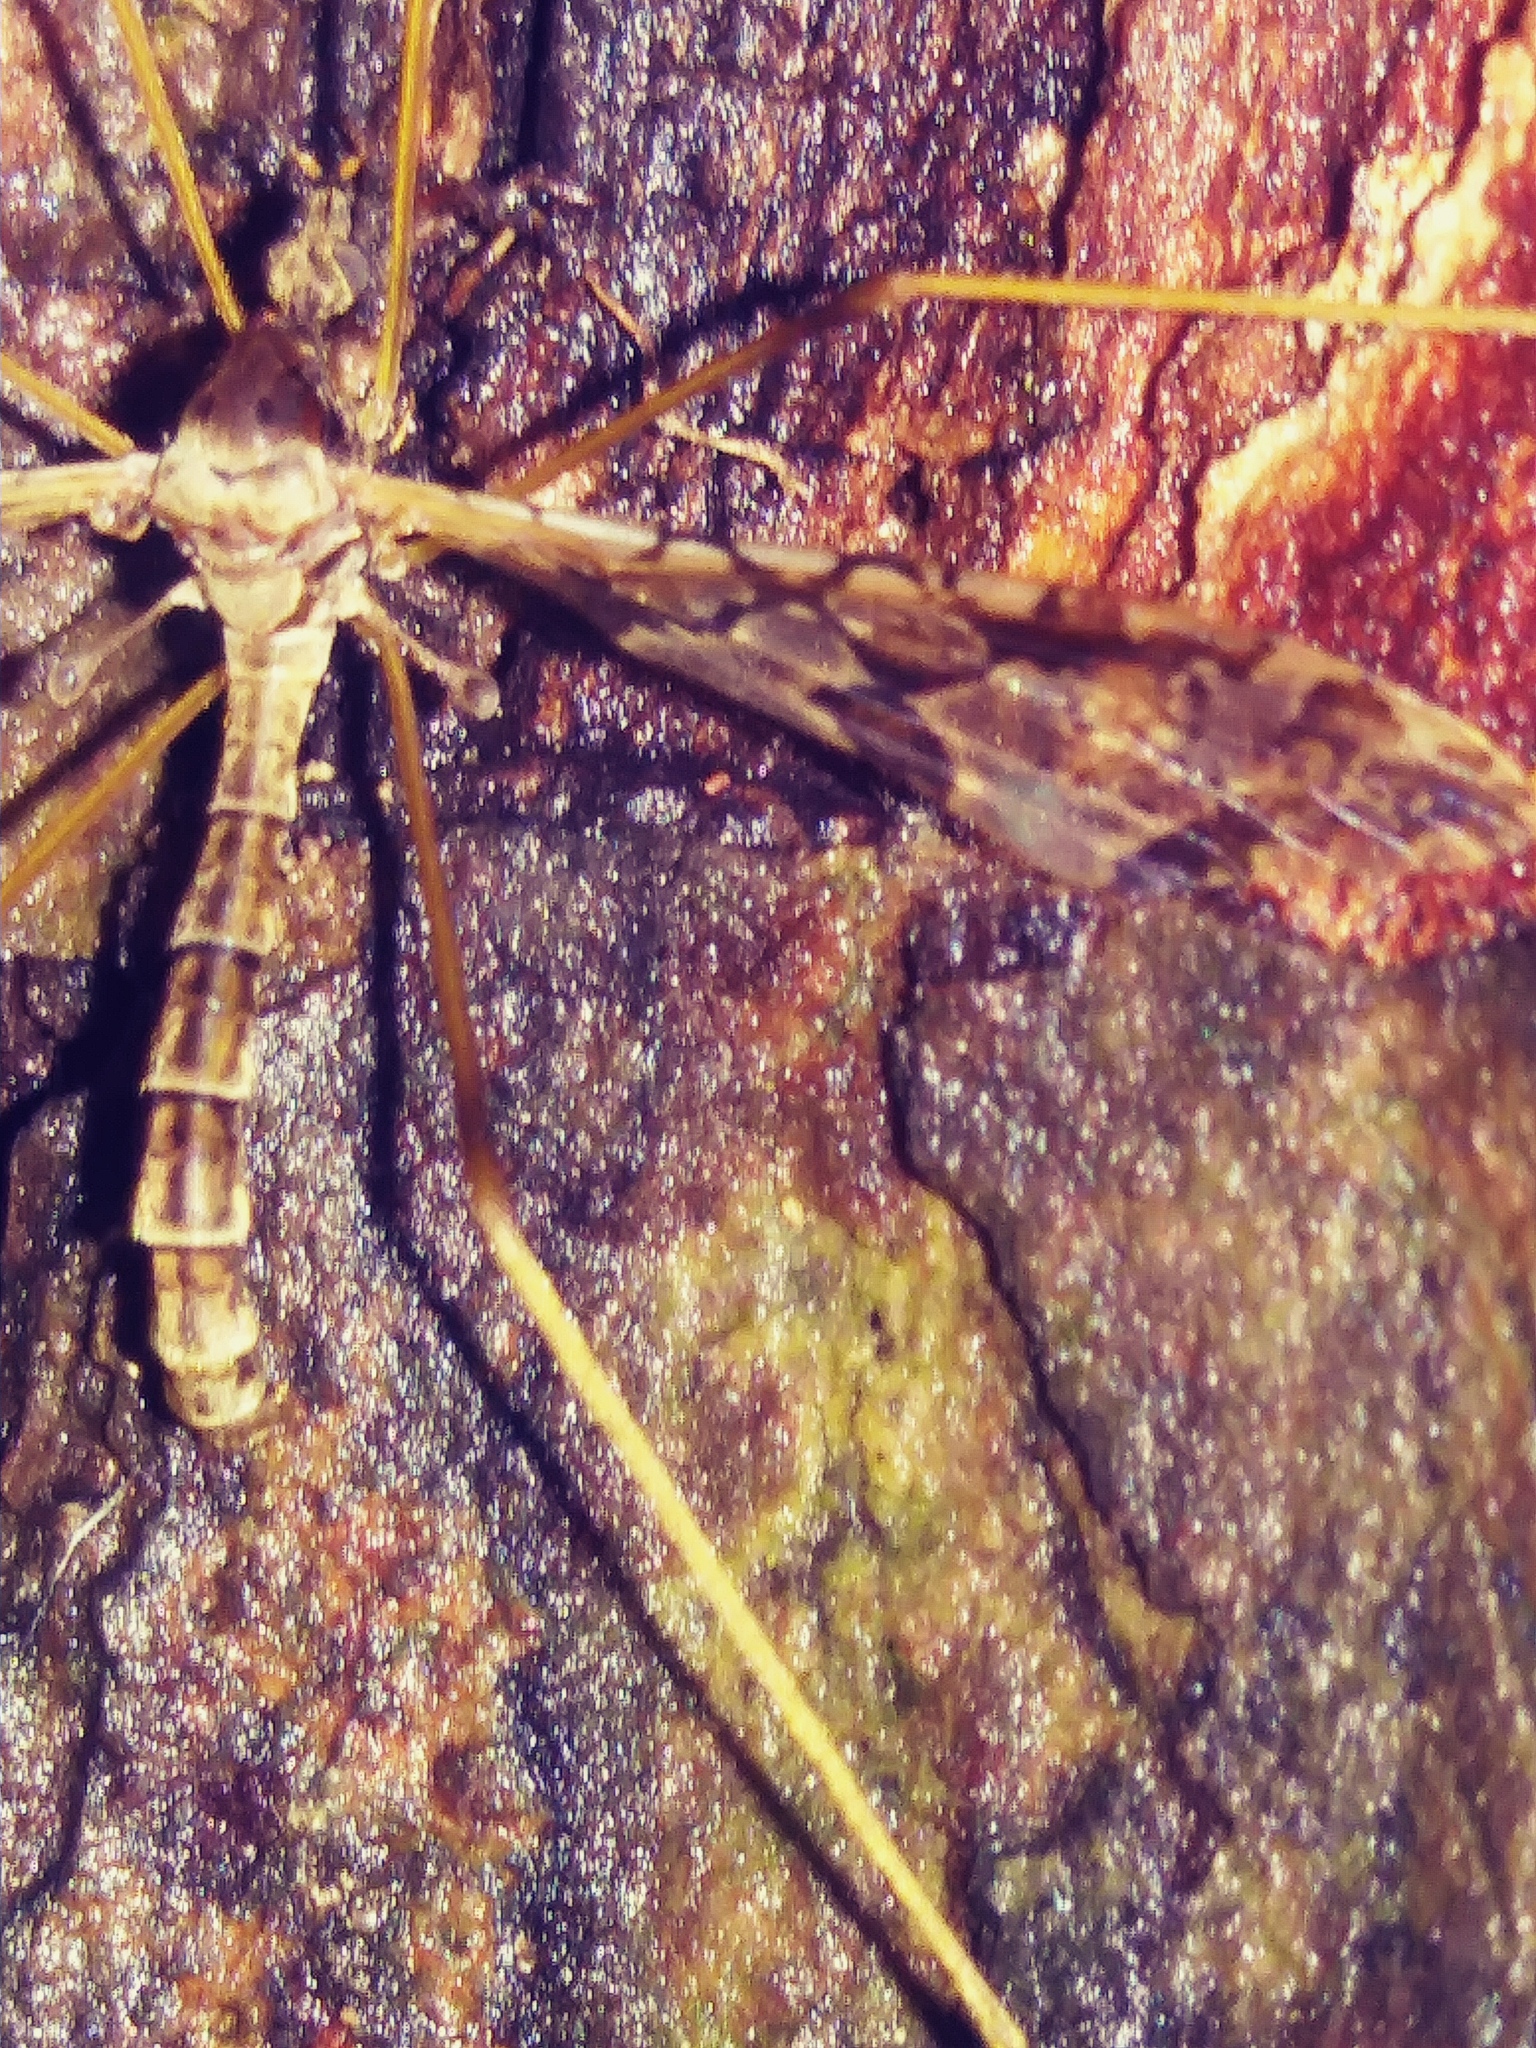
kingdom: Animalia
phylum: Arthropoda
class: Insecta
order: Diptera
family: Limoniidae
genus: Epiphragma
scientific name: Epiphragma solatrix
